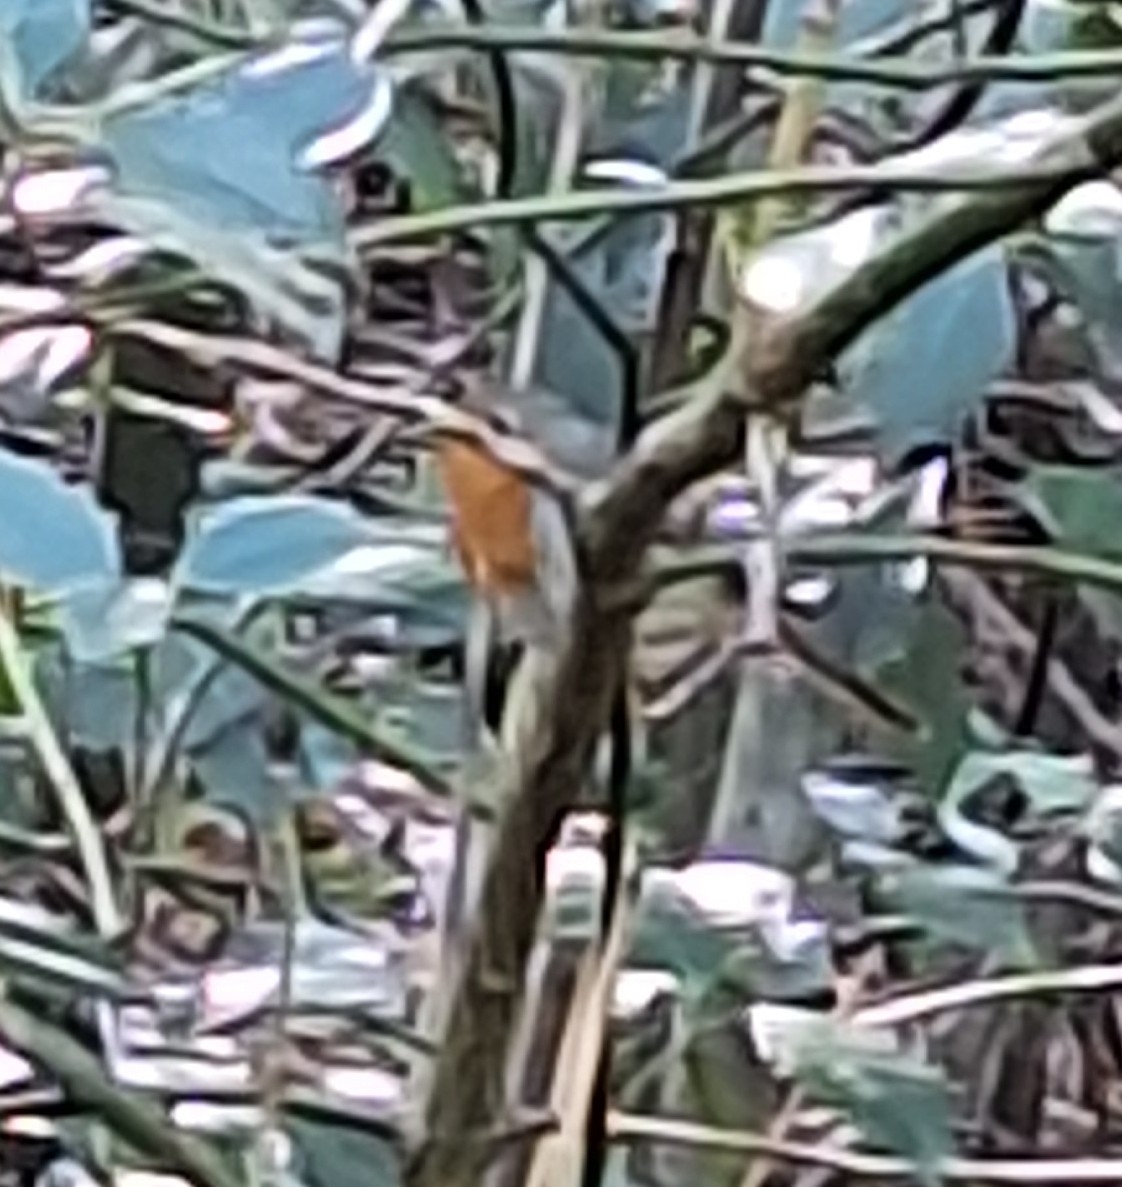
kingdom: Animalia
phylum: Chordata
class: Aves
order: Passeriformes
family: Muscicapidae
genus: Erithacus
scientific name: Erithacus rubecula
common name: European robin
